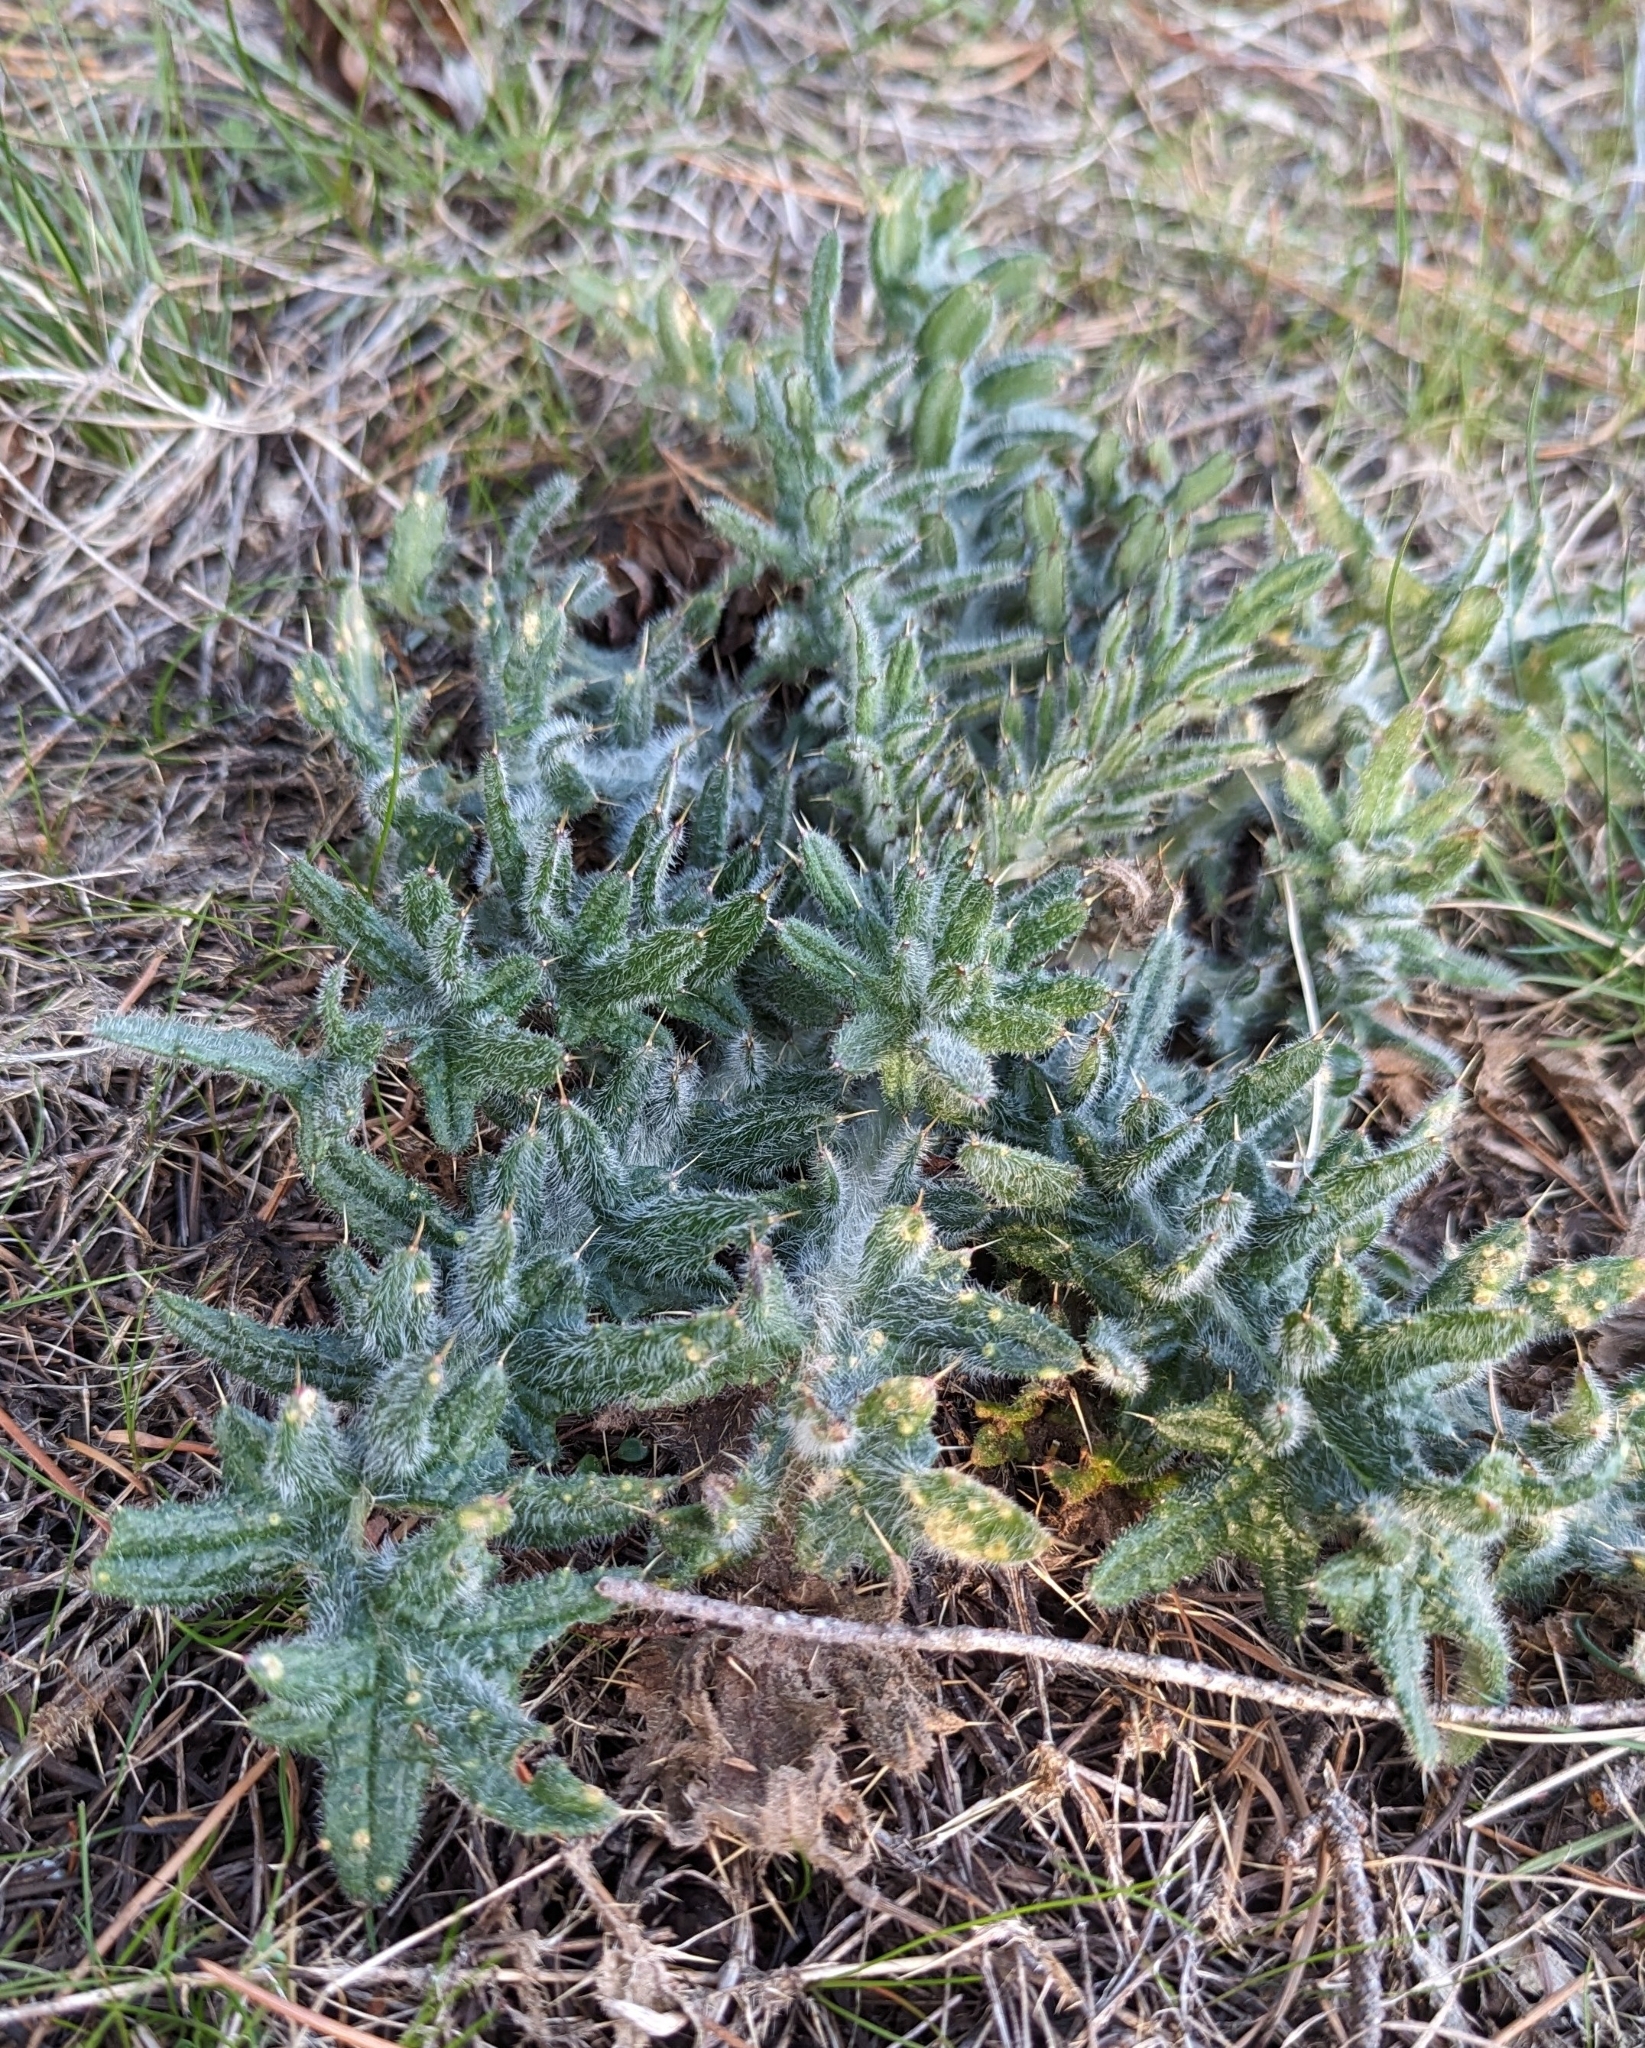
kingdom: Plantae
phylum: Tracheophyta
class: Magnoliopsida
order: Asterales
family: Asteraceae
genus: Cirsium
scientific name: Cirsium vulgare
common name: Bull thistle
